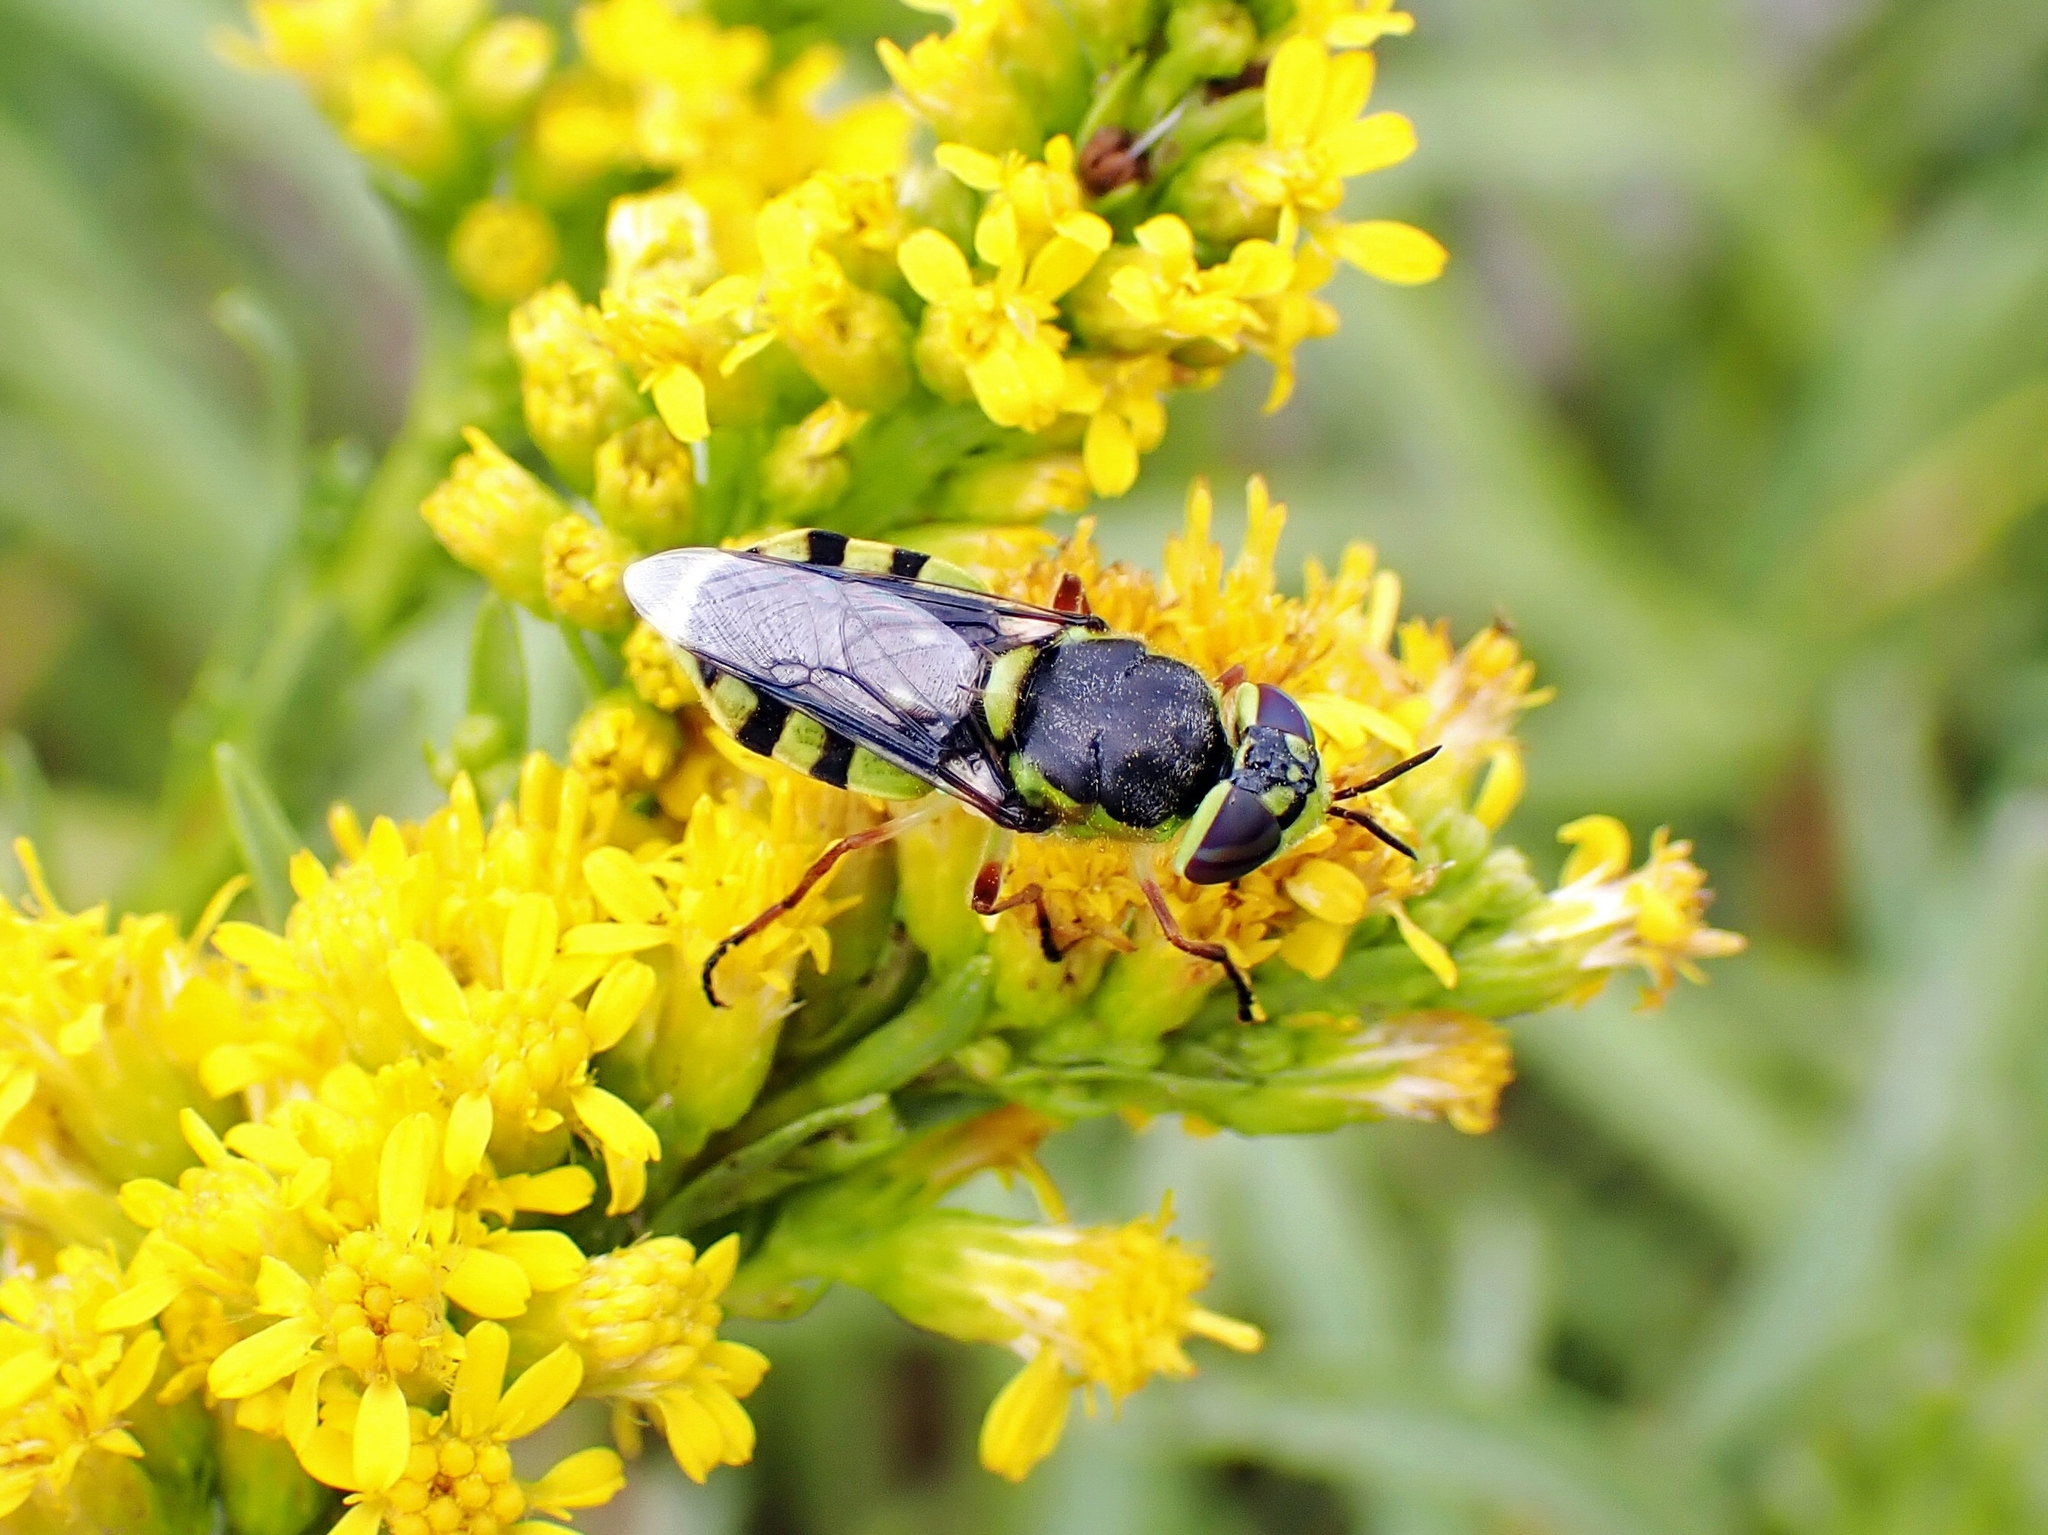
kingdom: Animalia
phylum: Arthropoda
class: Insecta
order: Diptera
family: Stratiomyidae
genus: Hedriodiscus
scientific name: Hedriodiscus truquii
